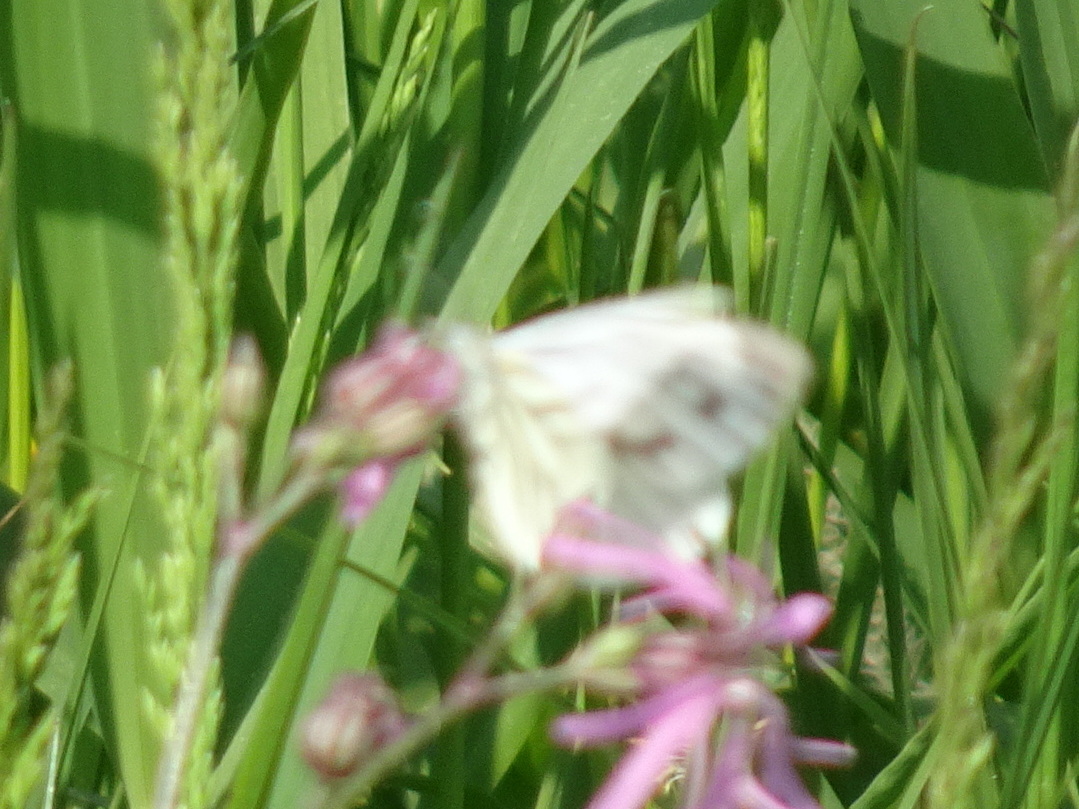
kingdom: Animalia
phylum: Arthropoda
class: Insecta
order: Lepidoptera
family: Pieridae
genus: Pieris
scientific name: Pieris napi
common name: Green-veined white
